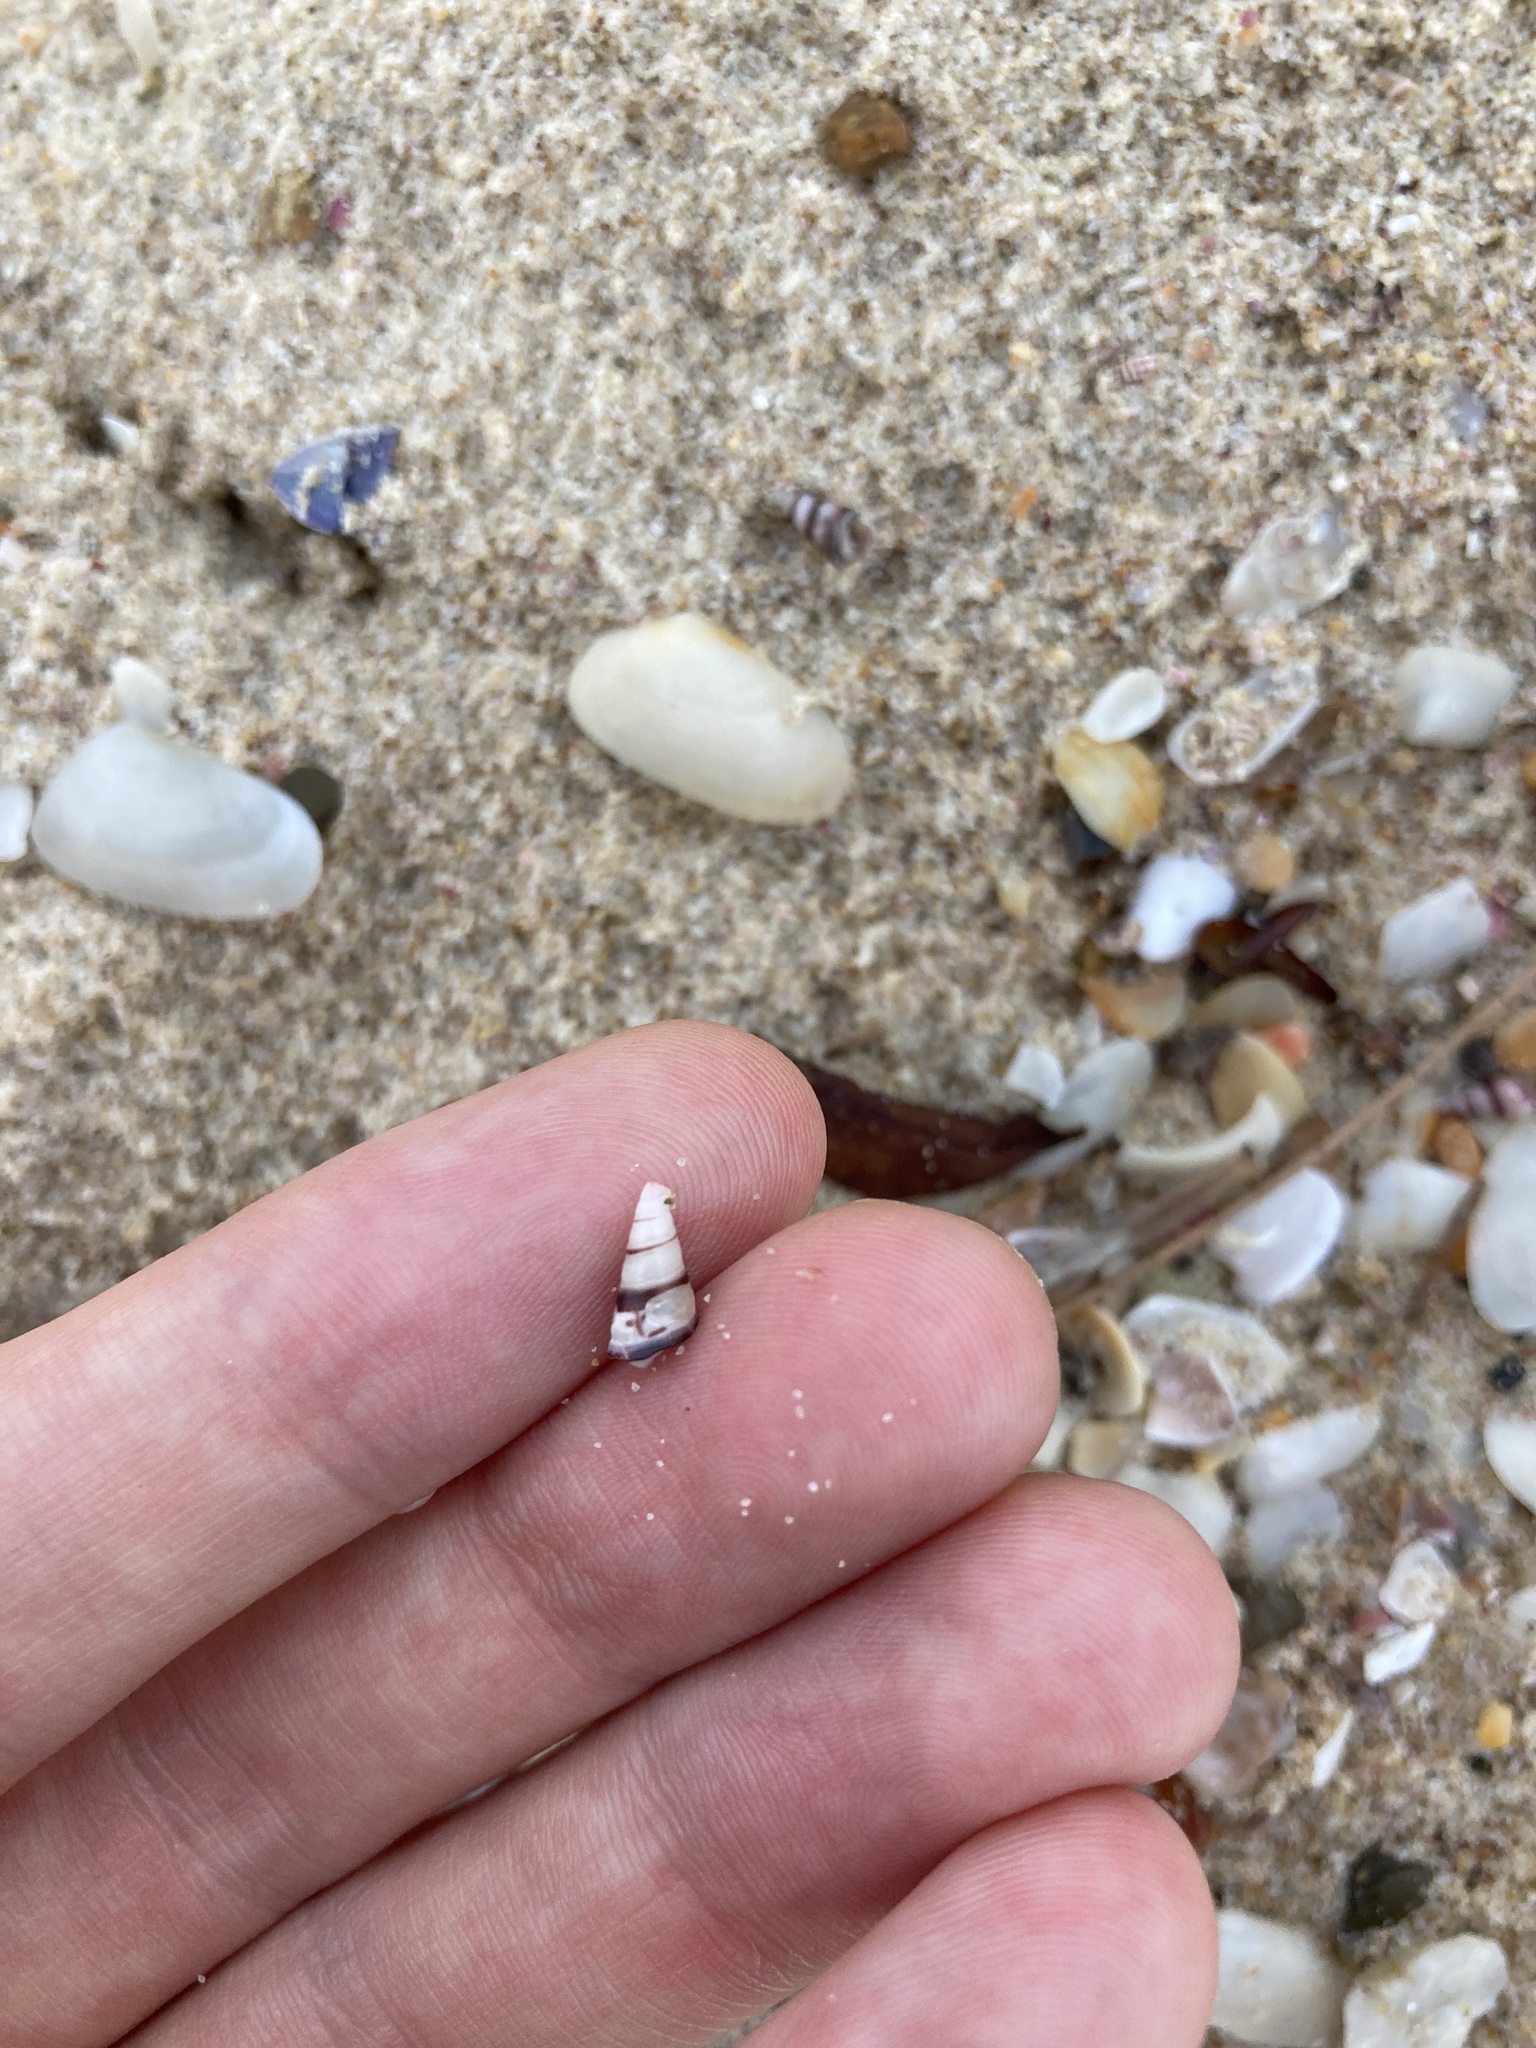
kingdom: Animalia
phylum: Mollusca
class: Gastropoda
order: Trochida
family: Trochidae
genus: Bankivia
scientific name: Bankivia fasciata
